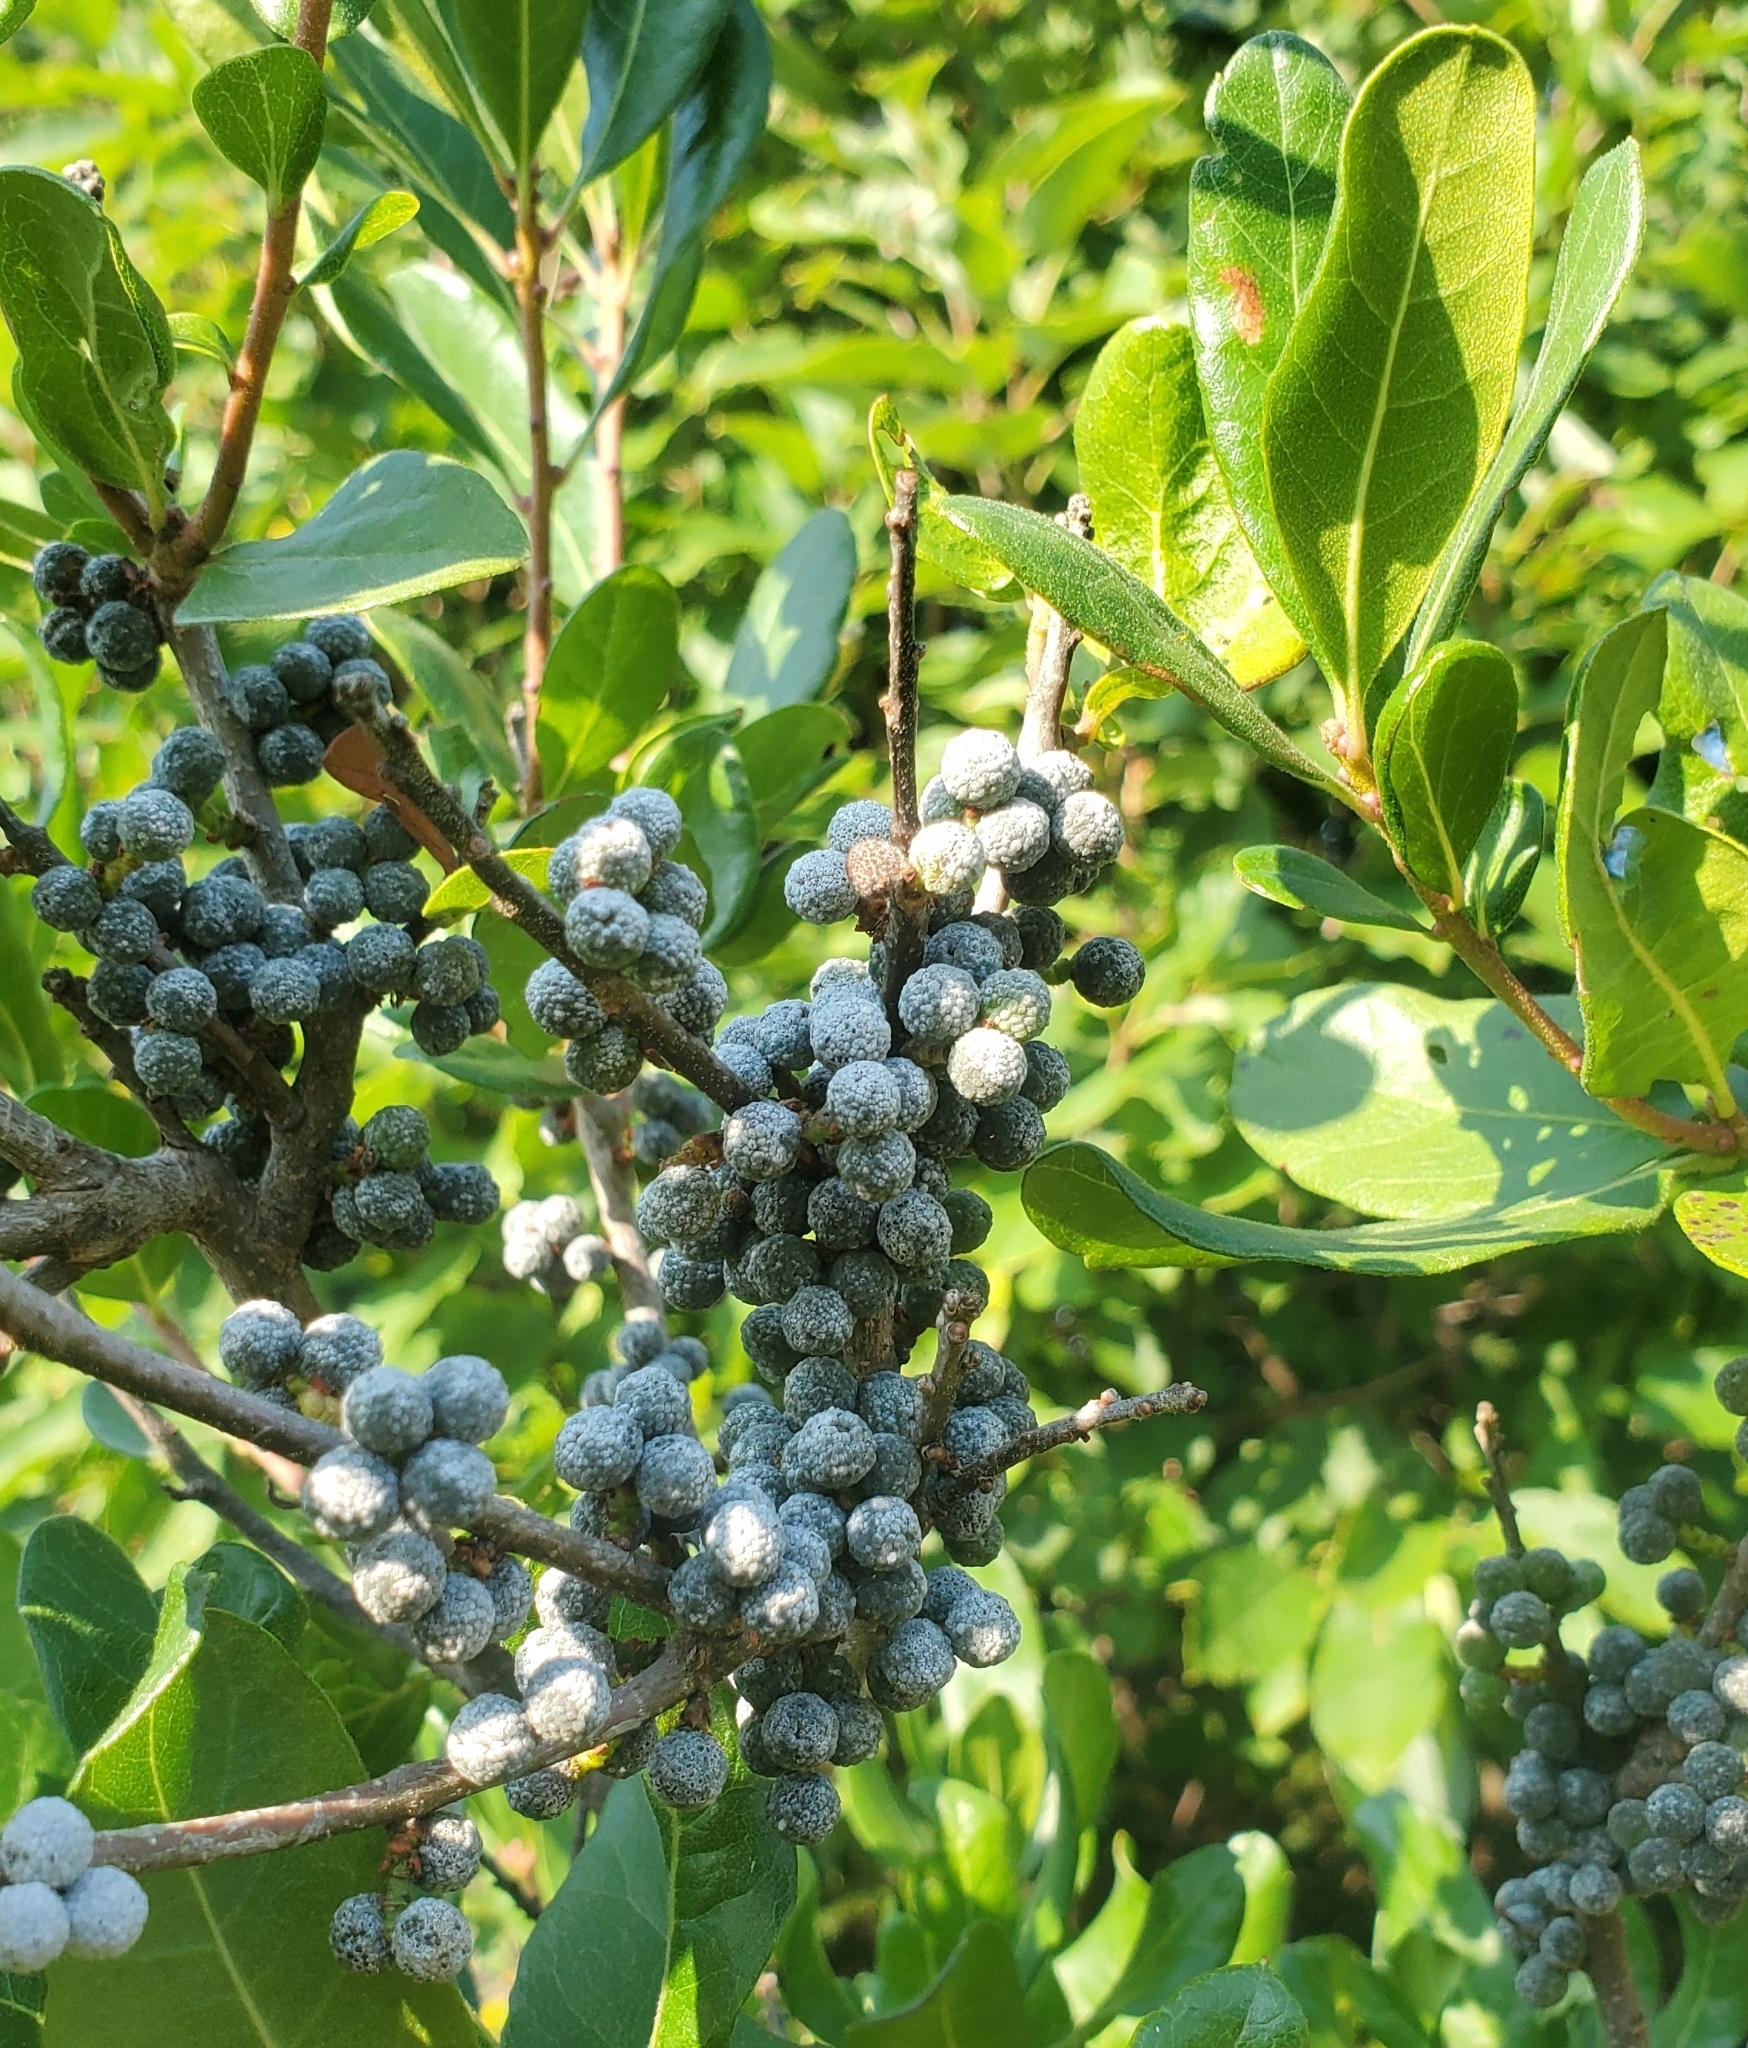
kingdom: Plantae
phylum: Tracheophyta
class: Magnoliopsida
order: Fagales
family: Myricaceae
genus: Morella
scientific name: Morella pensylvanica
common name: Northern bayberry
